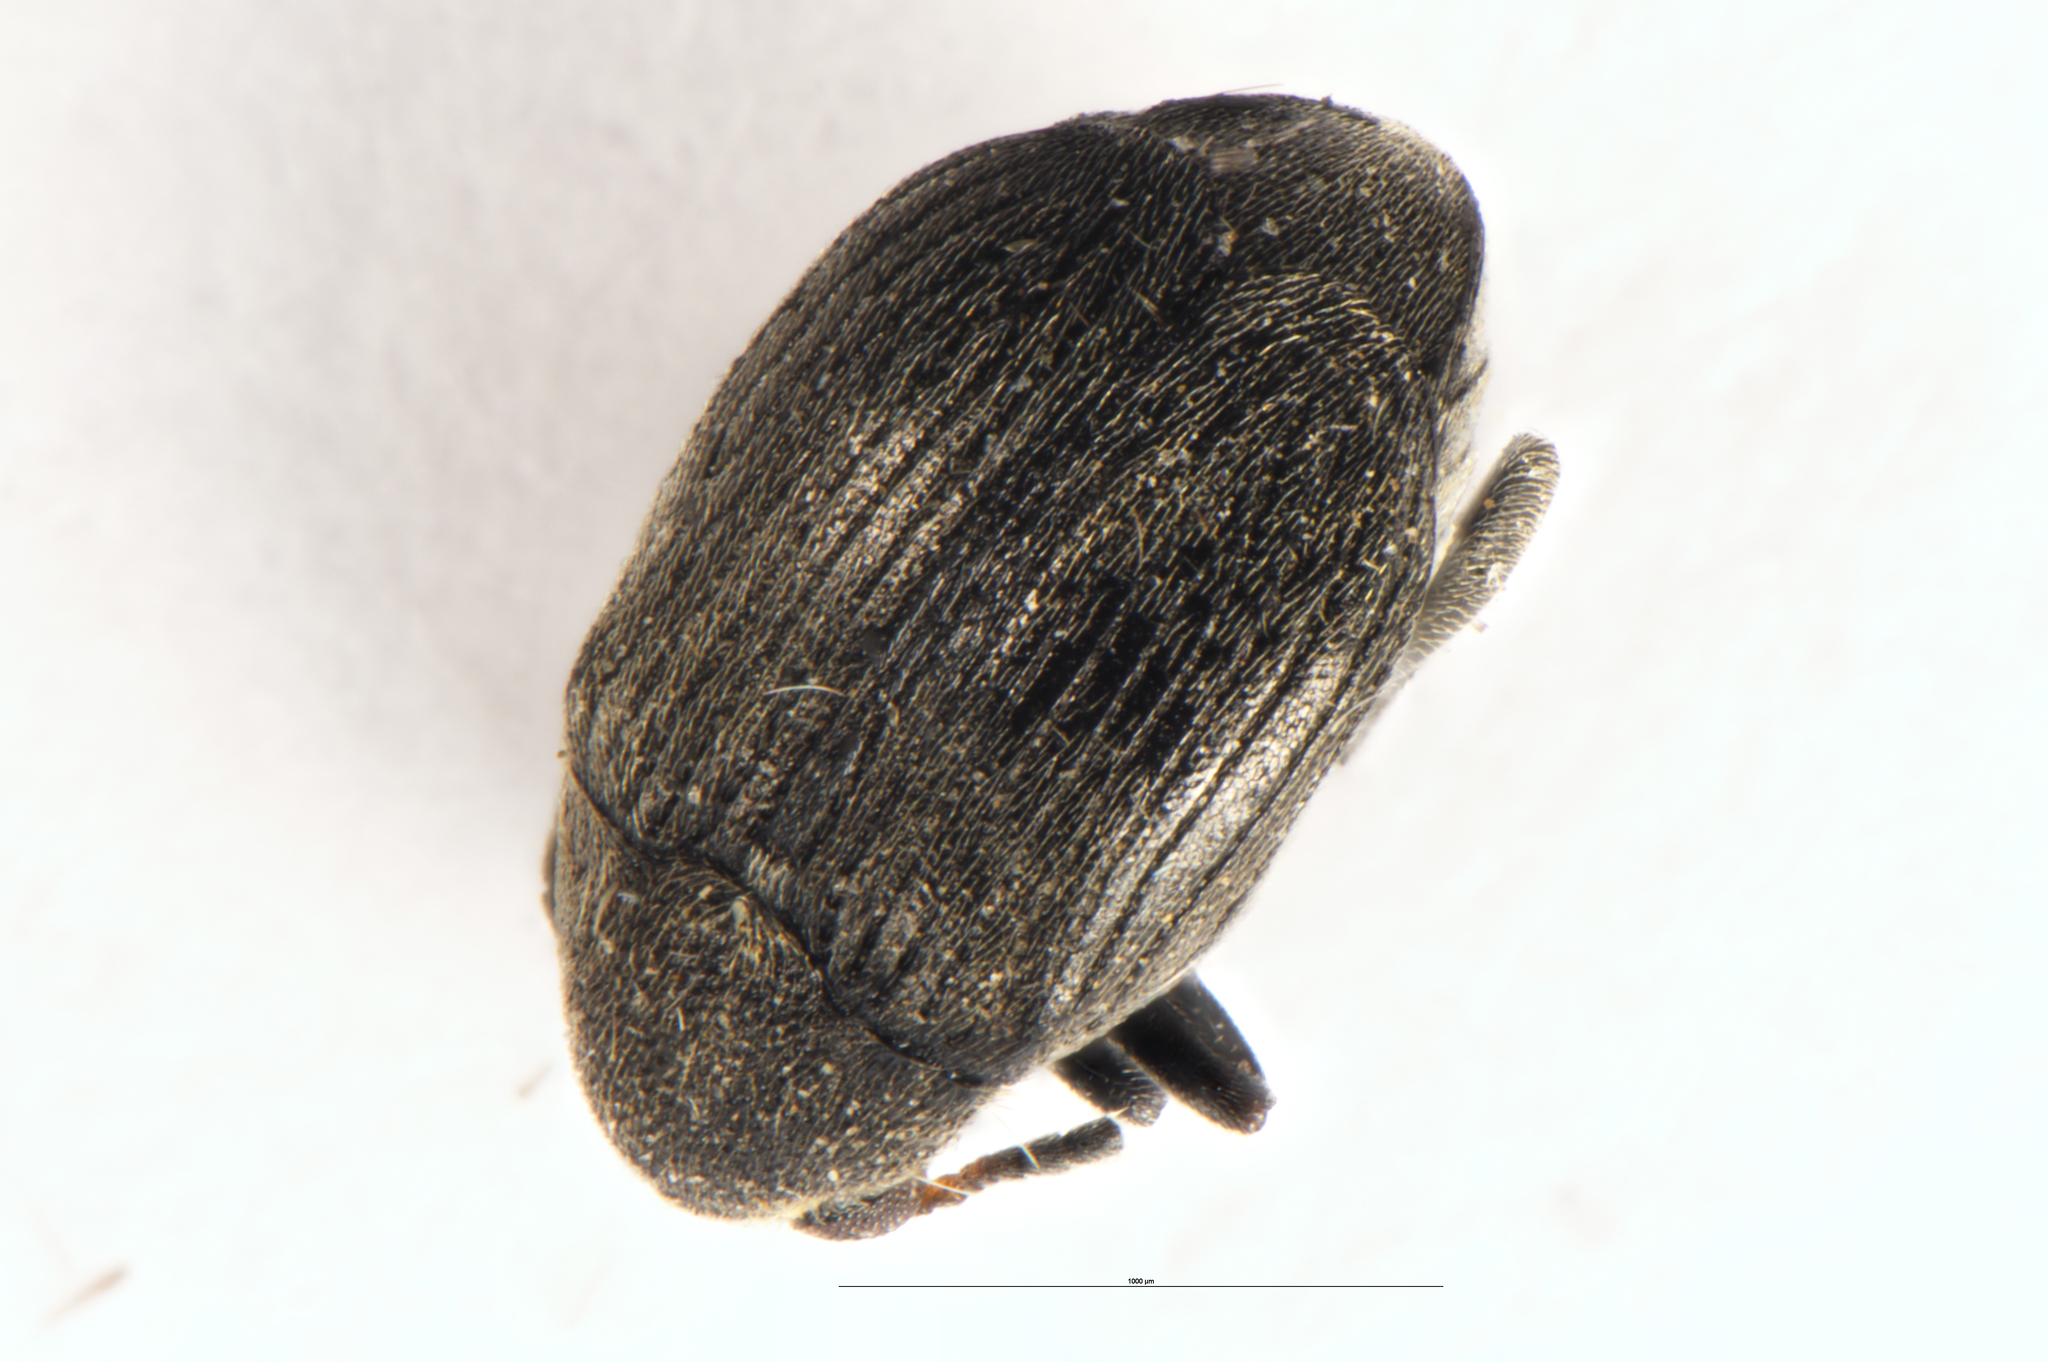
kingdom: Animalia
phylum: Arthropoda
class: Insecta
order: Coleoptera
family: Chrysomelidae
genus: Bruchidius
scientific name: Bruchidius villosus
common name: Scotch broom bruchid
